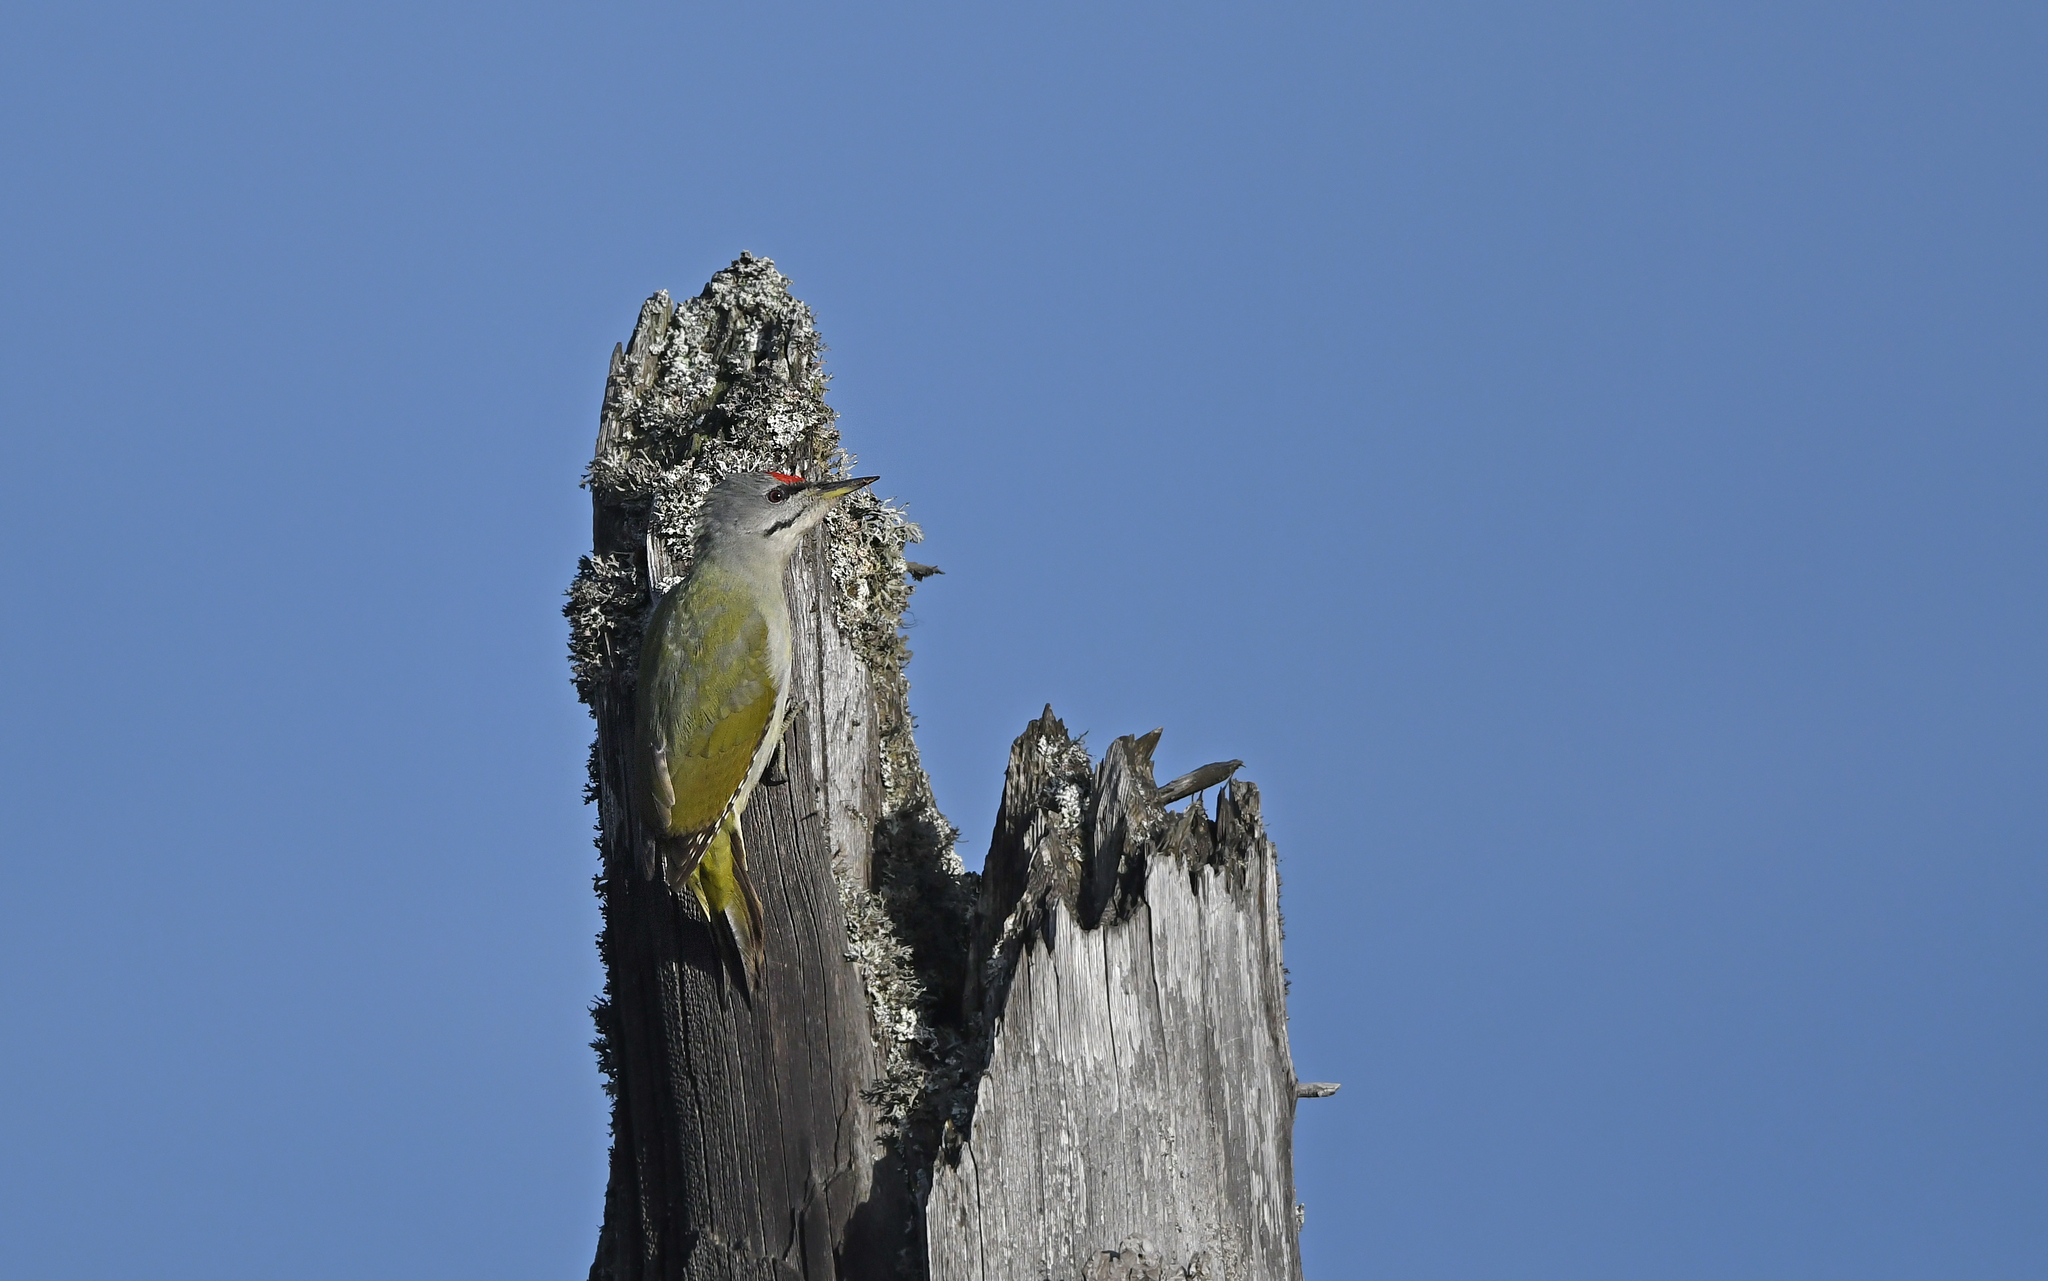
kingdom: Animalia
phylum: Chordata
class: Aves
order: Piciformes
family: Picidae
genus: Picus
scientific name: Picus canus
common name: Grey-headed woodpecker
